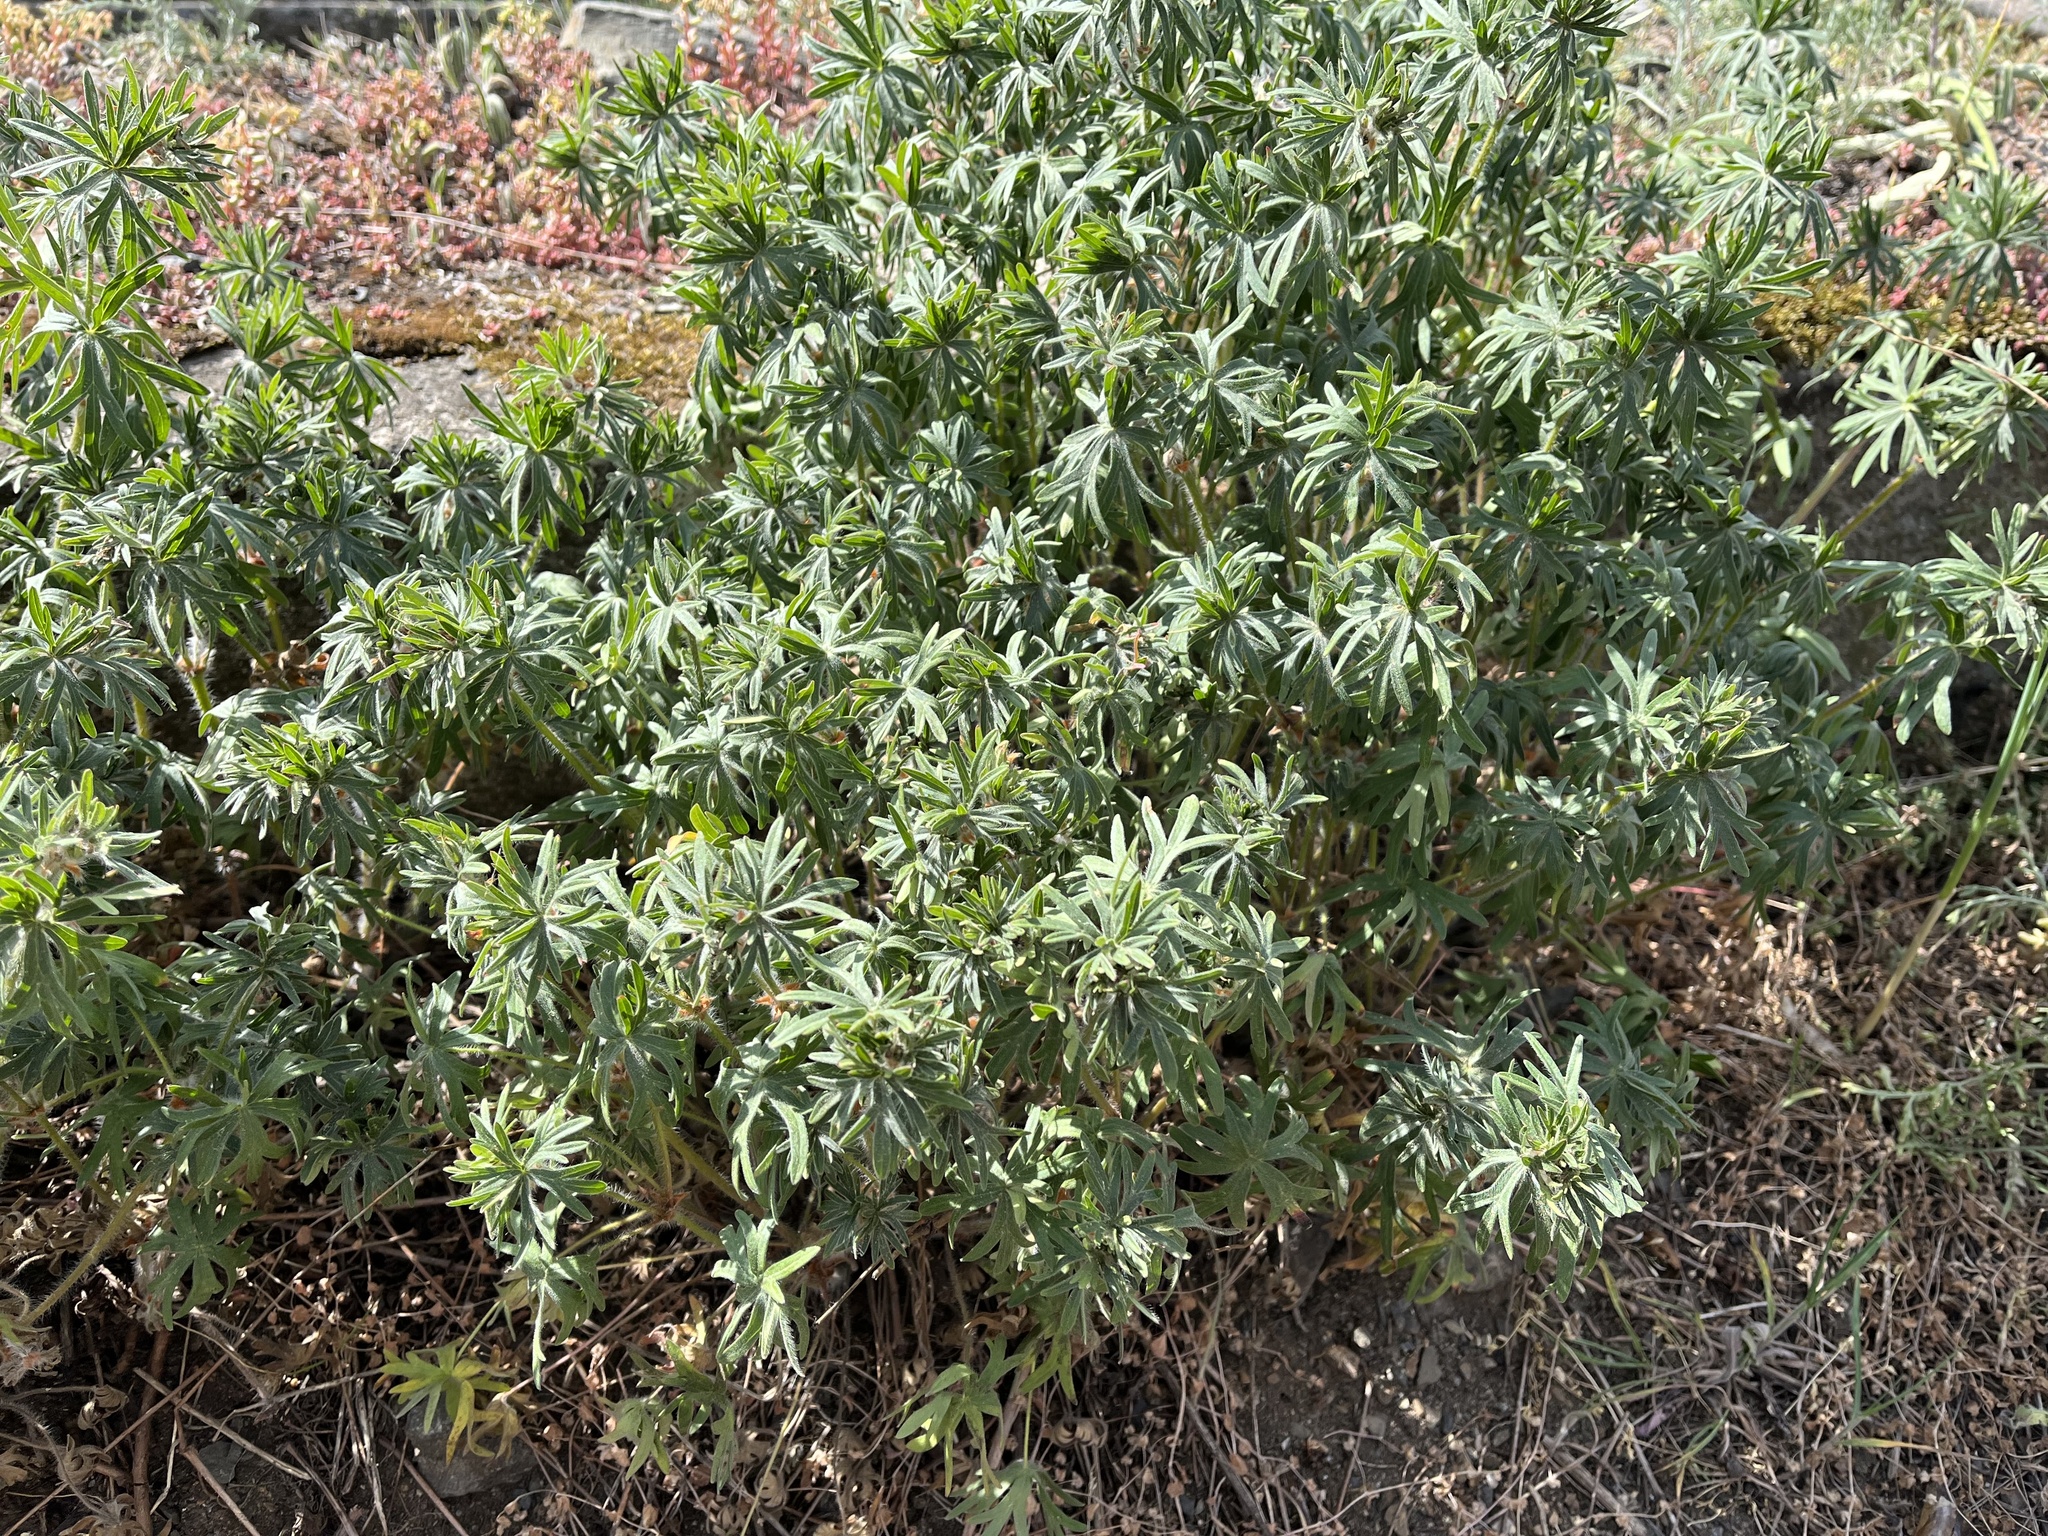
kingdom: Plantae
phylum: Tracheophyta
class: Magnoliopsida
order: Geraniales
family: Geraniaceae
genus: Geranium
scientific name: Geranium sanguineum
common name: Bloody crane's-bill
